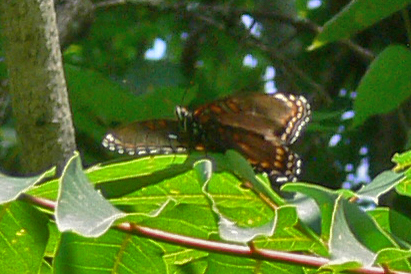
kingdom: Animalia
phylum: Arthropoda
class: Insecta
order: Lepidoptera
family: Nymphalidae
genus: Limenitis
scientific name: Limenitis astyanax
